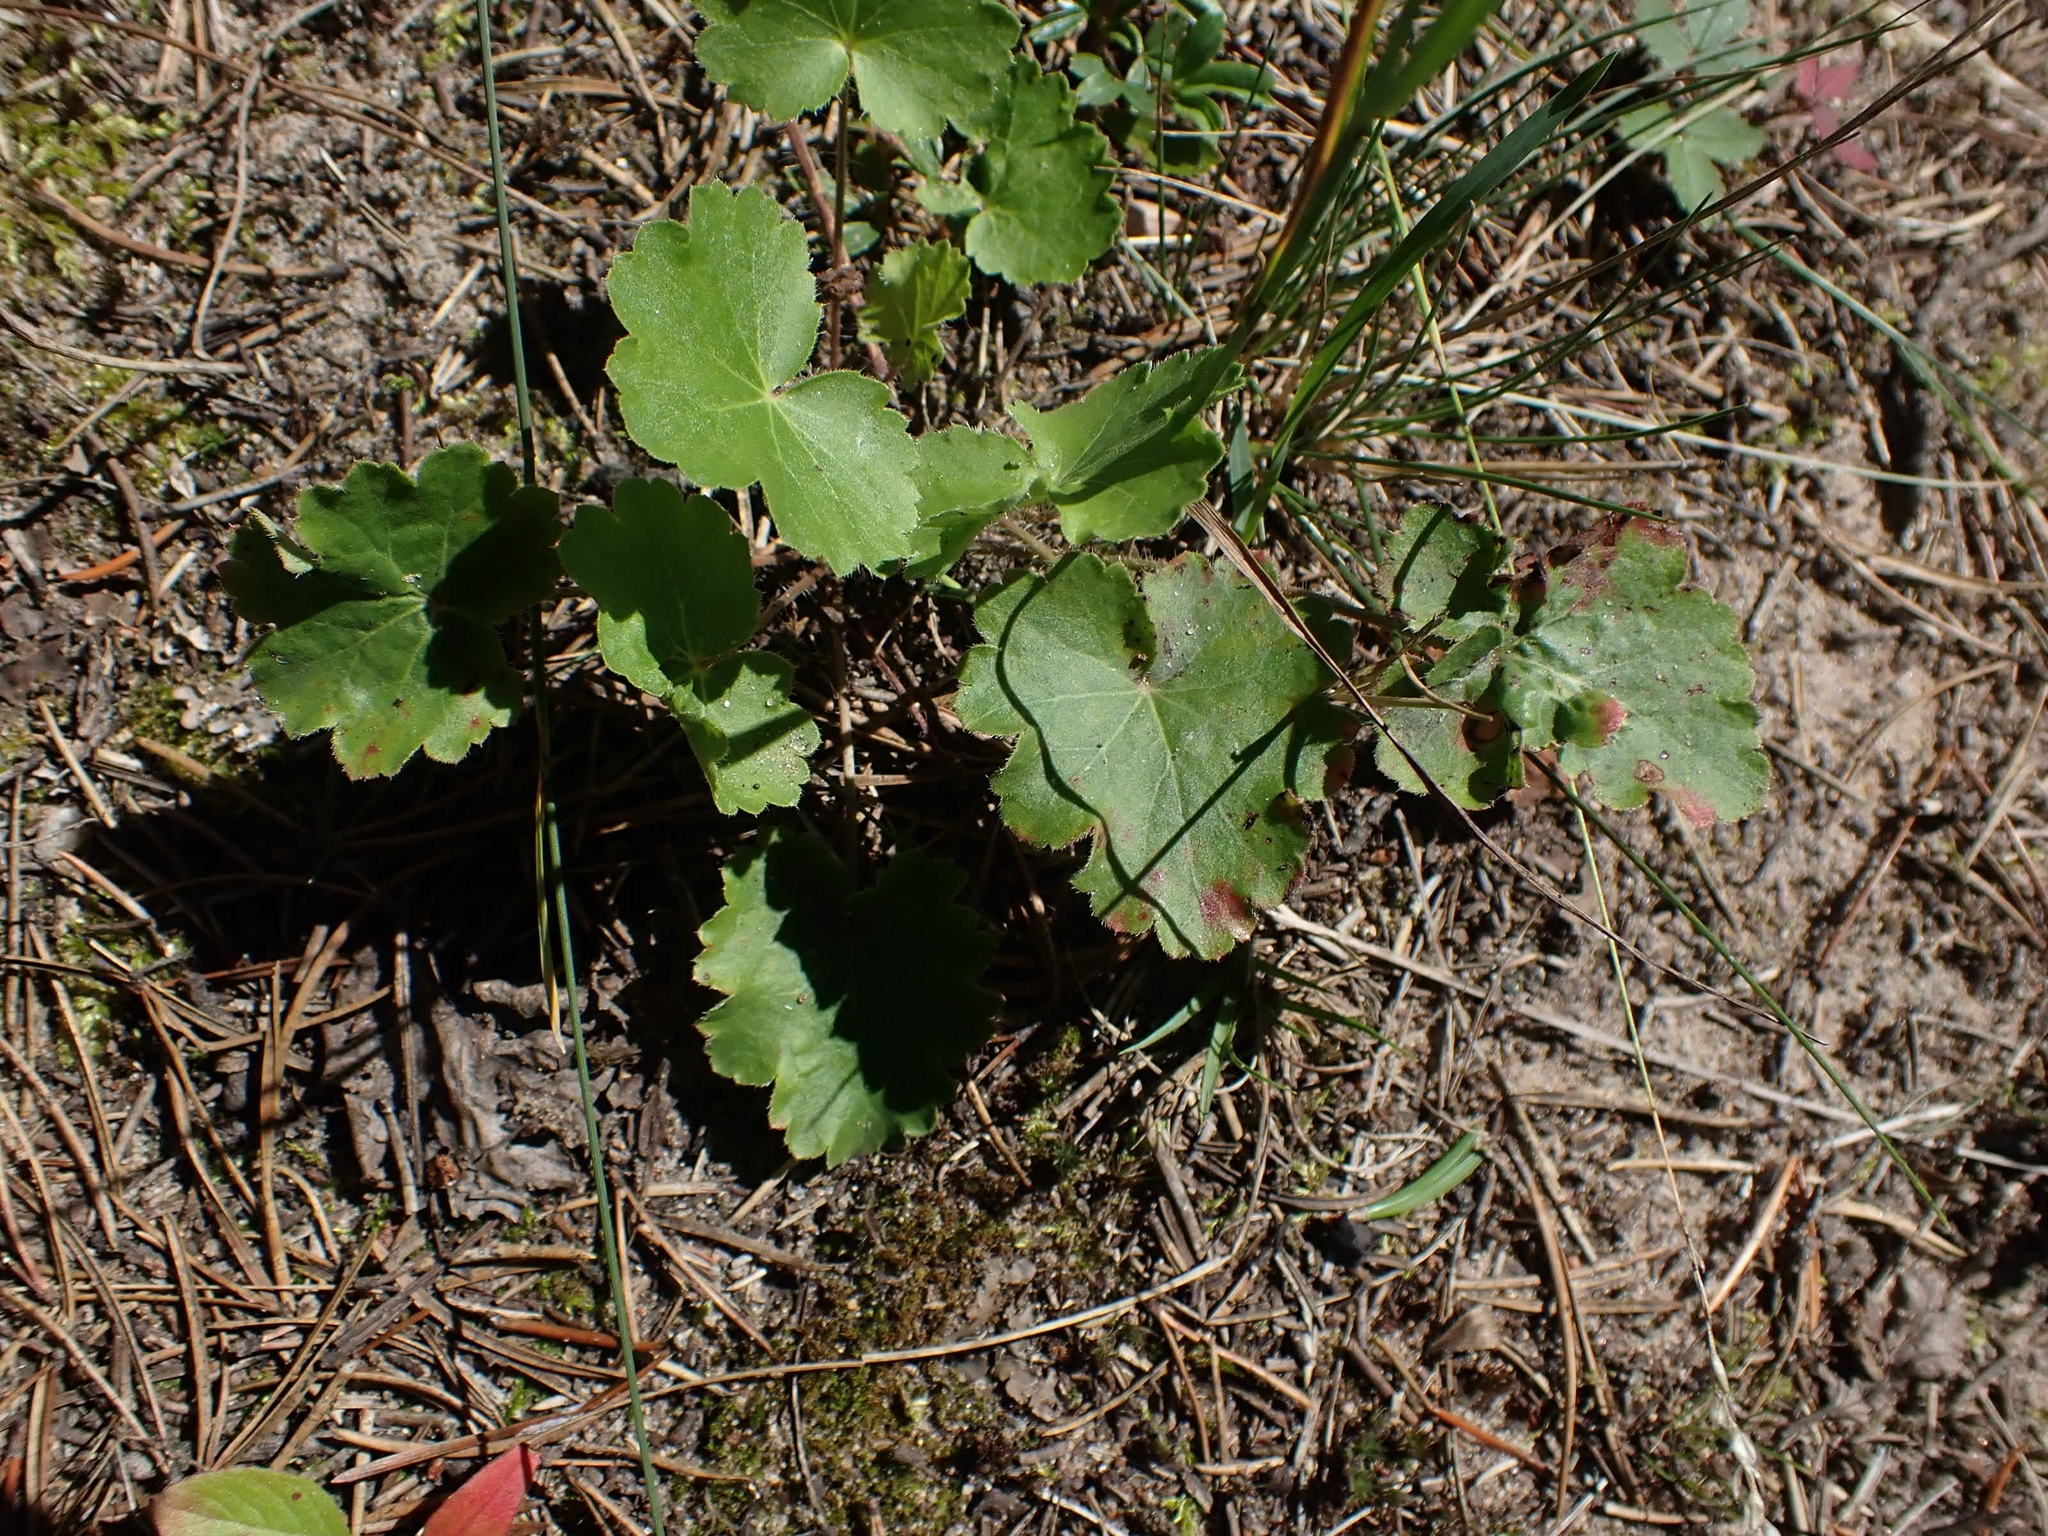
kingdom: Plantae
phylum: Tracheophyta
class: Magnoliopsida
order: Saxifragales
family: Saxifragaceae
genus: Heuchera
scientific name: Heuchera richardsonii
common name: Richardson's alumroot
